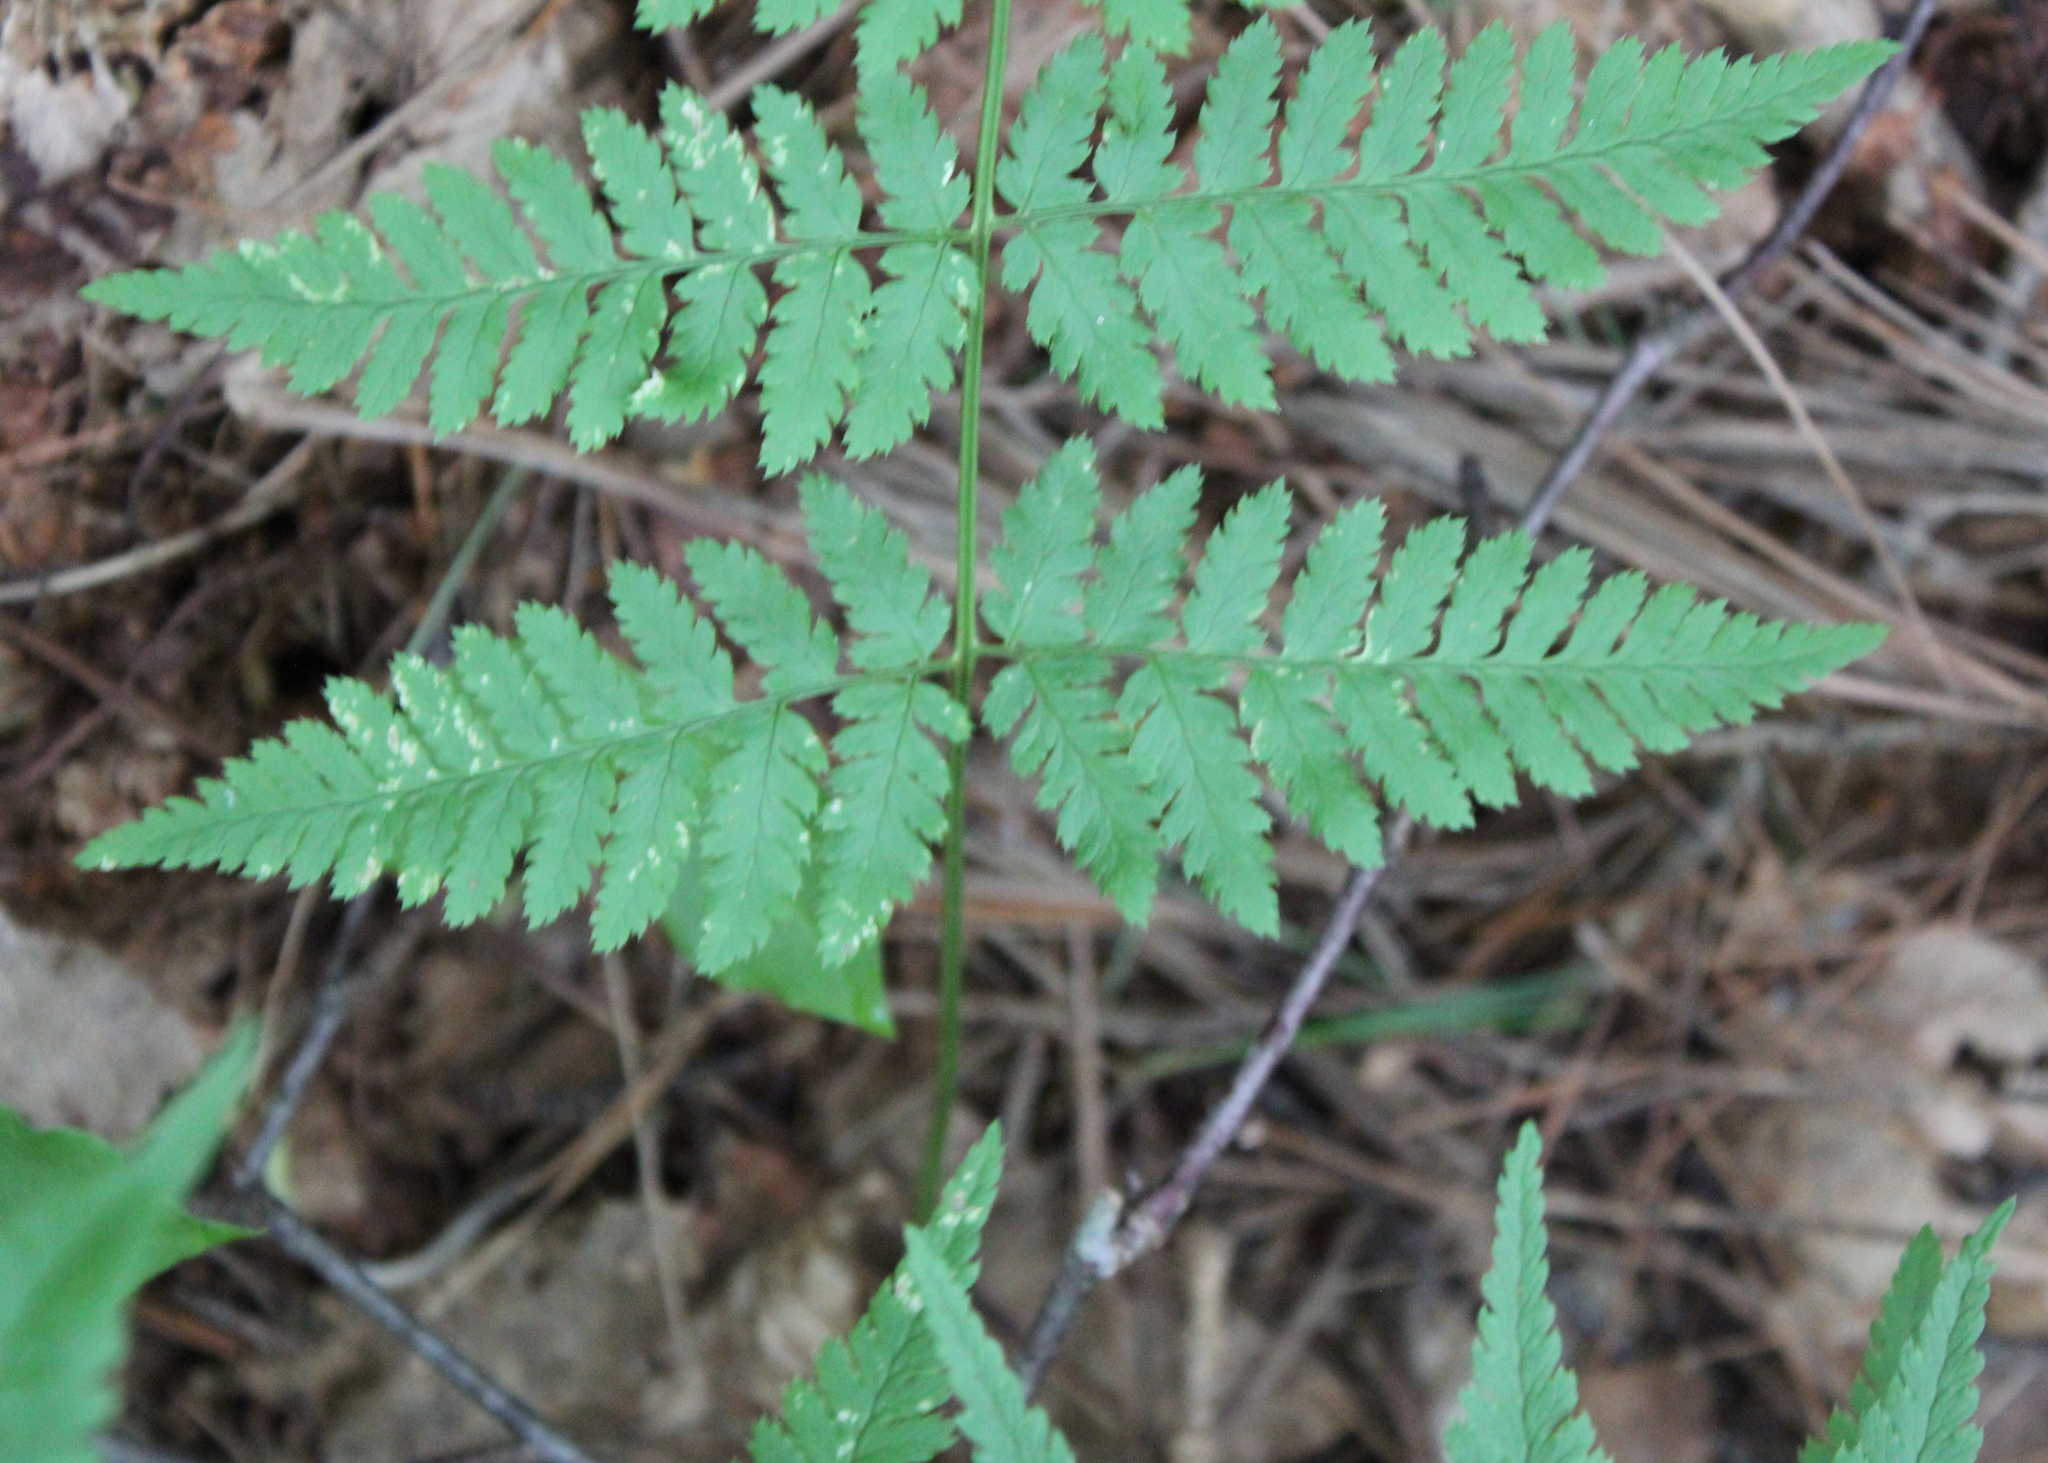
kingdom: Plantae
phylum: Tracheophyta
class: Polypodiopsida
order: Polypodiales
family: Dryopteridaceae
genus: Dryopteris
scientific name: Dryopteris intermedia
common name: Evergreen wood fern
